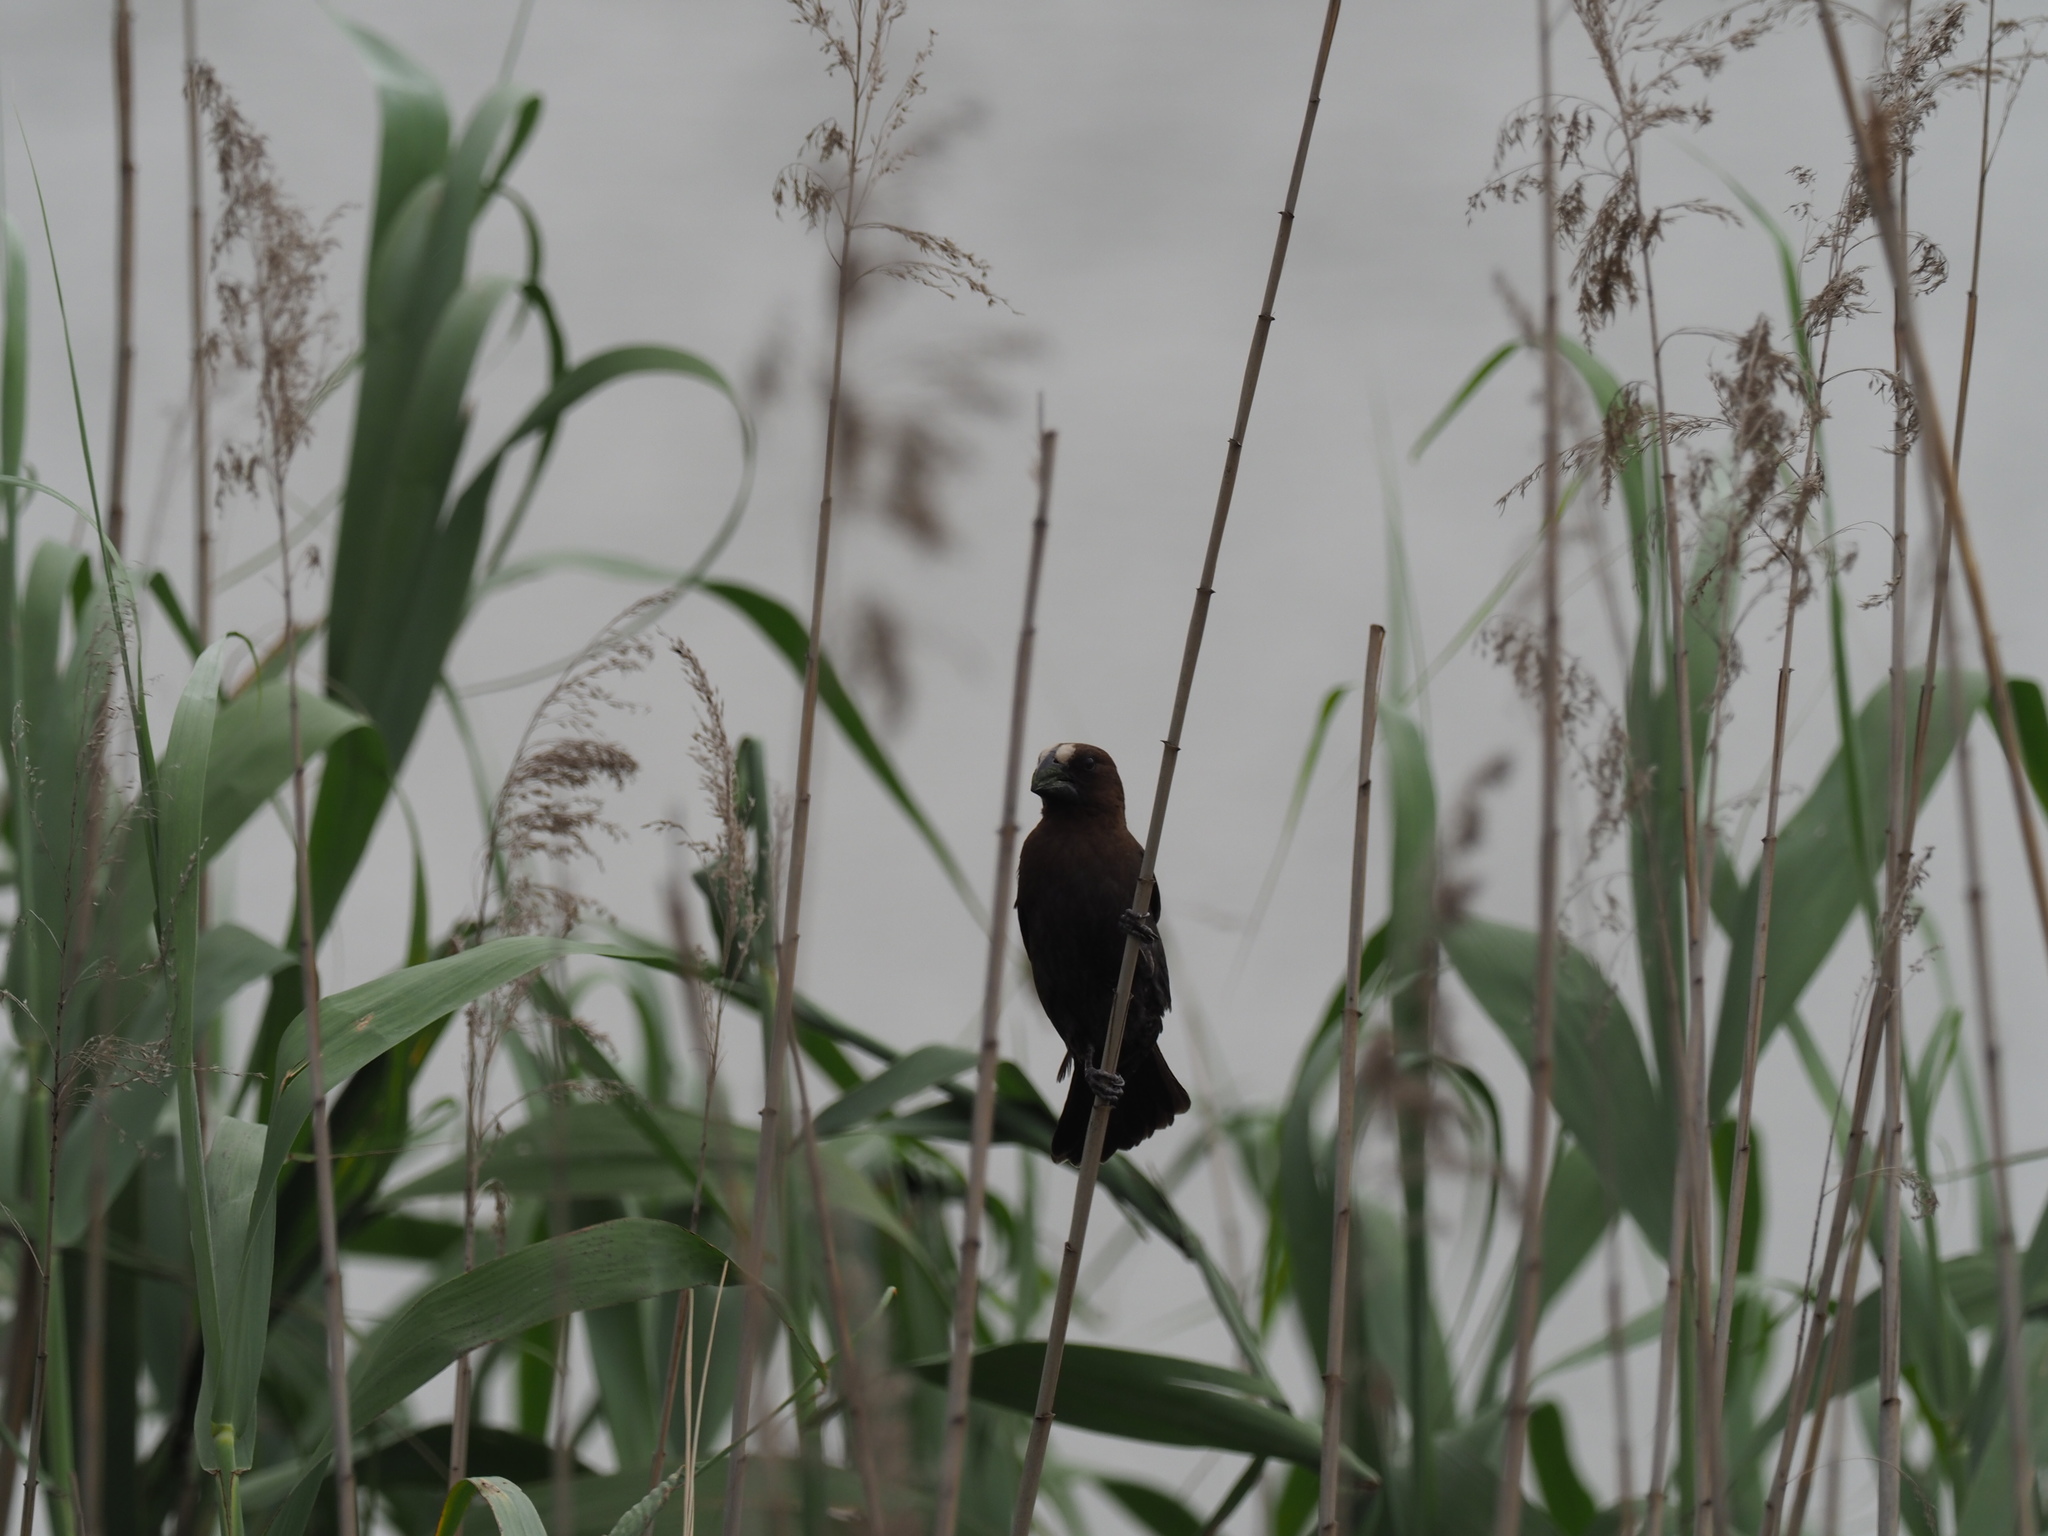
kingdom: Animalia
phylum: Chordata
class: Aves
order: Passeriformes
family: Ploceidae
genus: Amblyospiza
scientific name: Amblyospiza albifrons
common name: Thick-billed weaver
